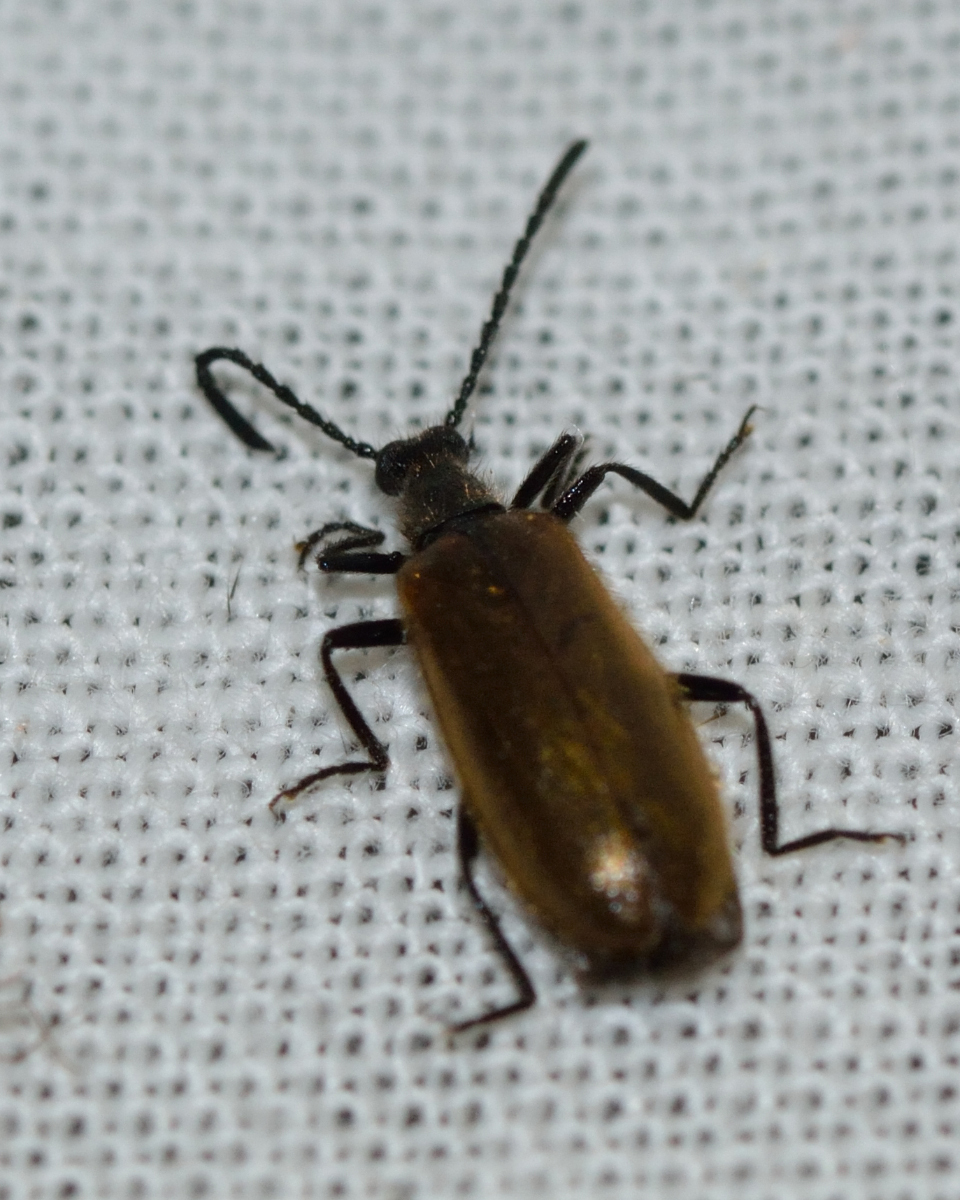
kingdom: Animalia
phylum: Arthropoda
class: Insecta
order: Coleoptera
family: Tenebrionidae
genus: Lagria
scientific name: Lagria hirta
